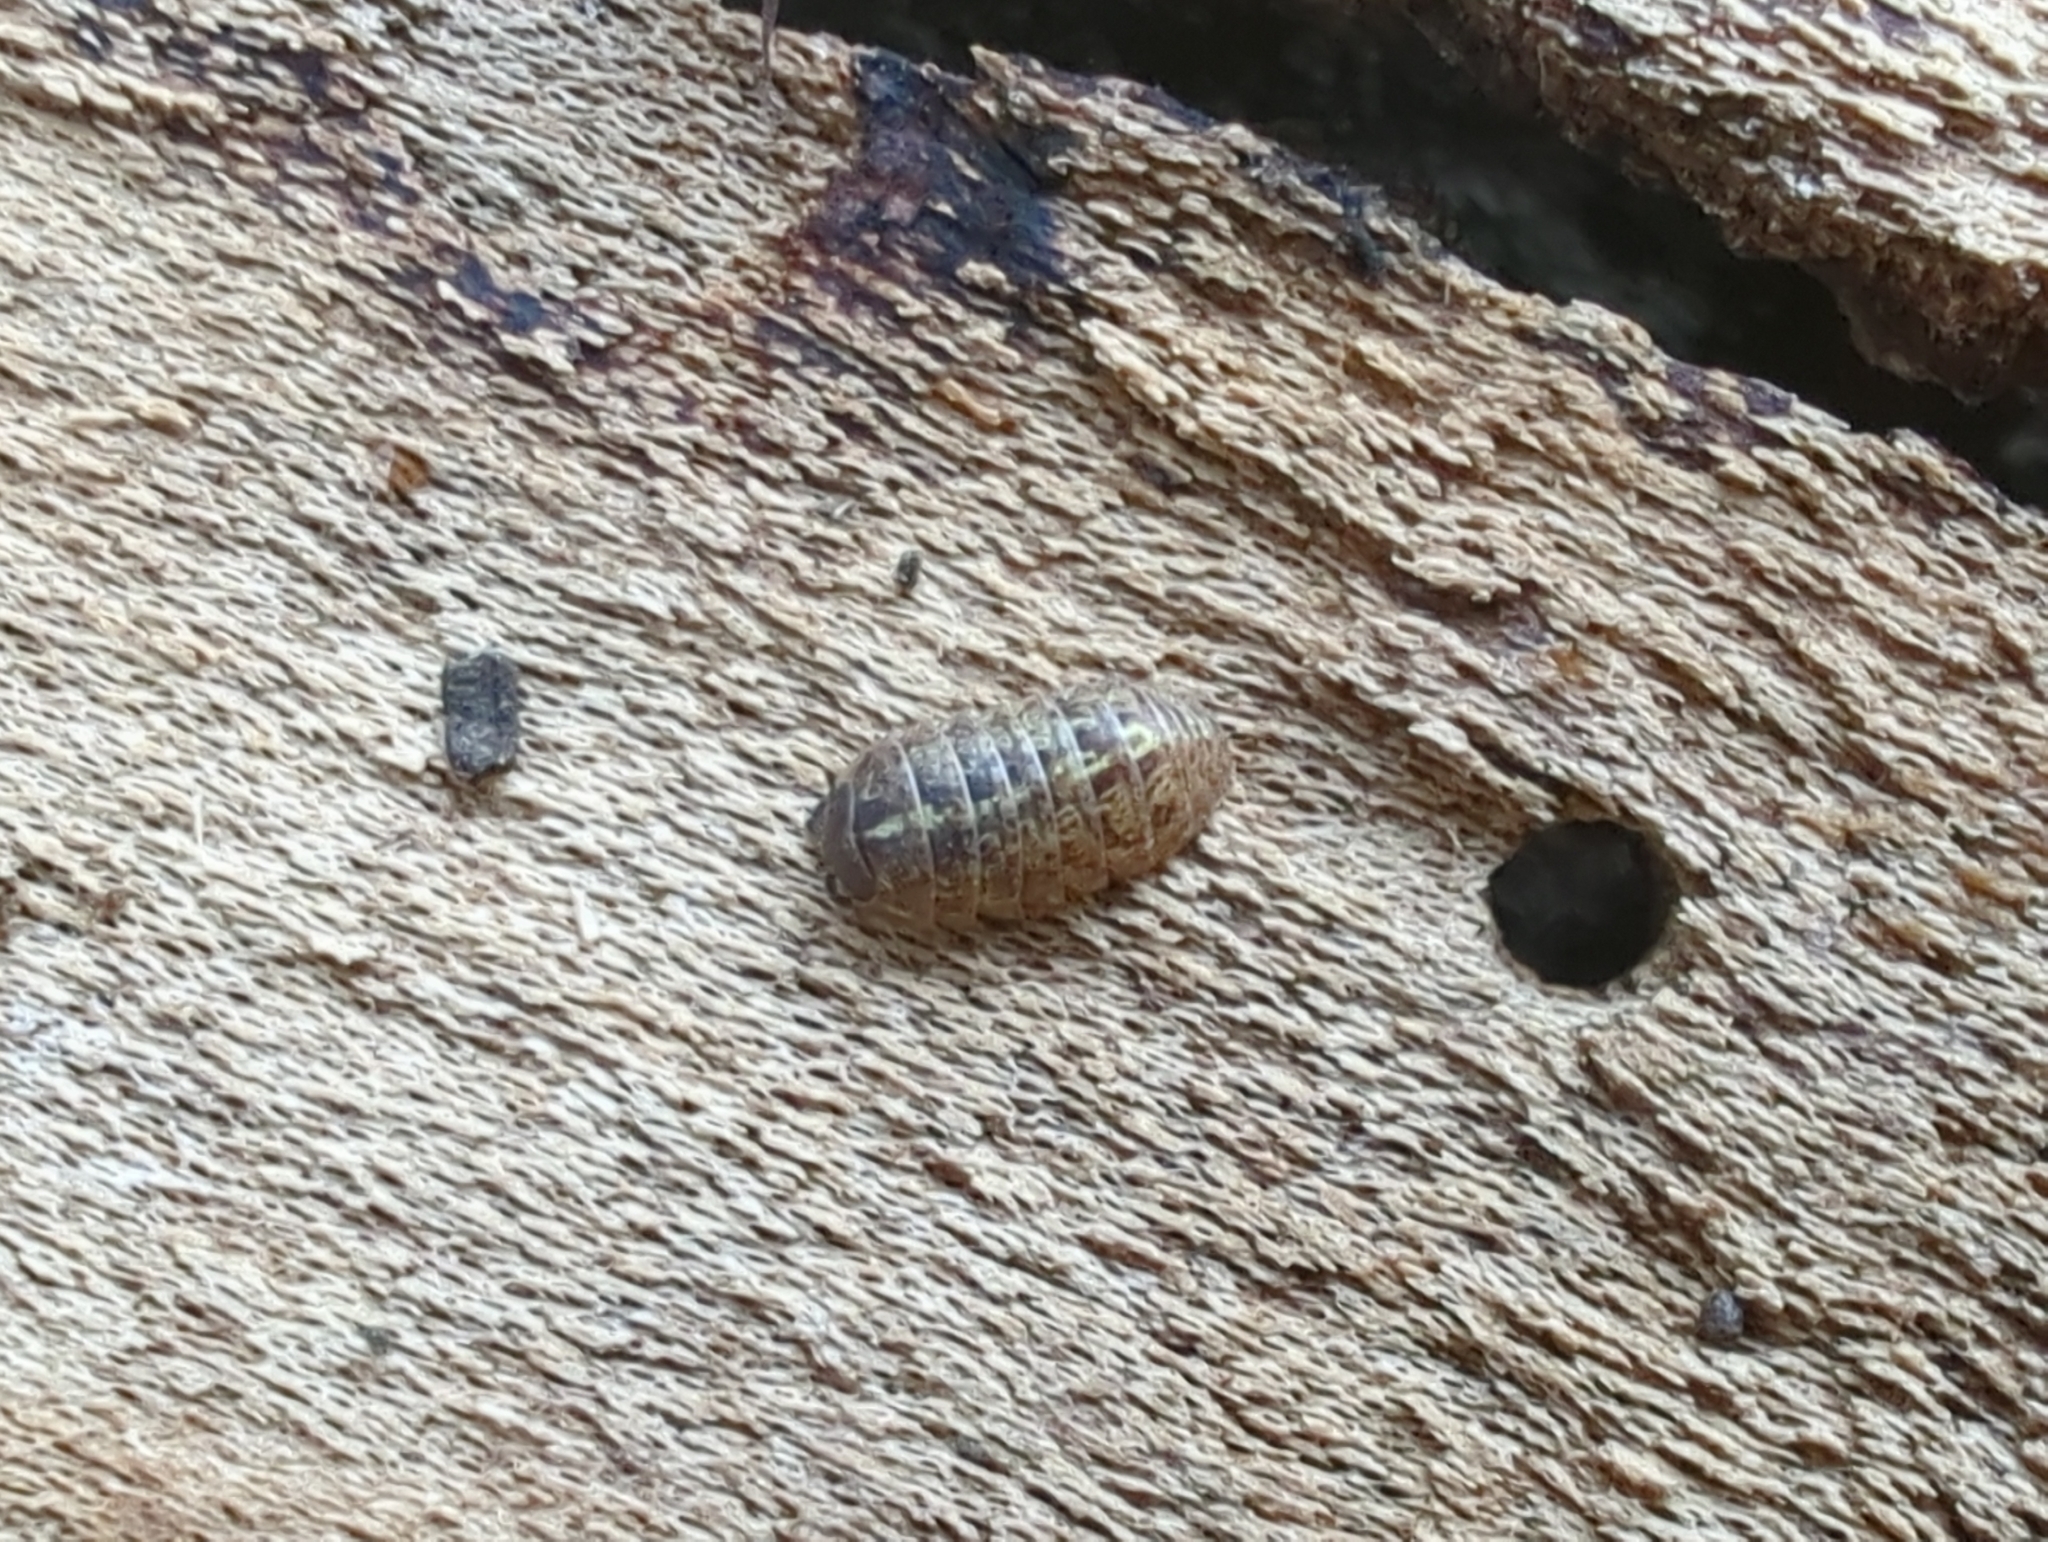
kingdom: Animalia
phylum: Arthropoda
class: Malacostraca
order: Isopoda
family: Armadillidiidae
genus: Armadillidium
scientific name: Armadillidium vulgare
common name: Common pill woodlouse
